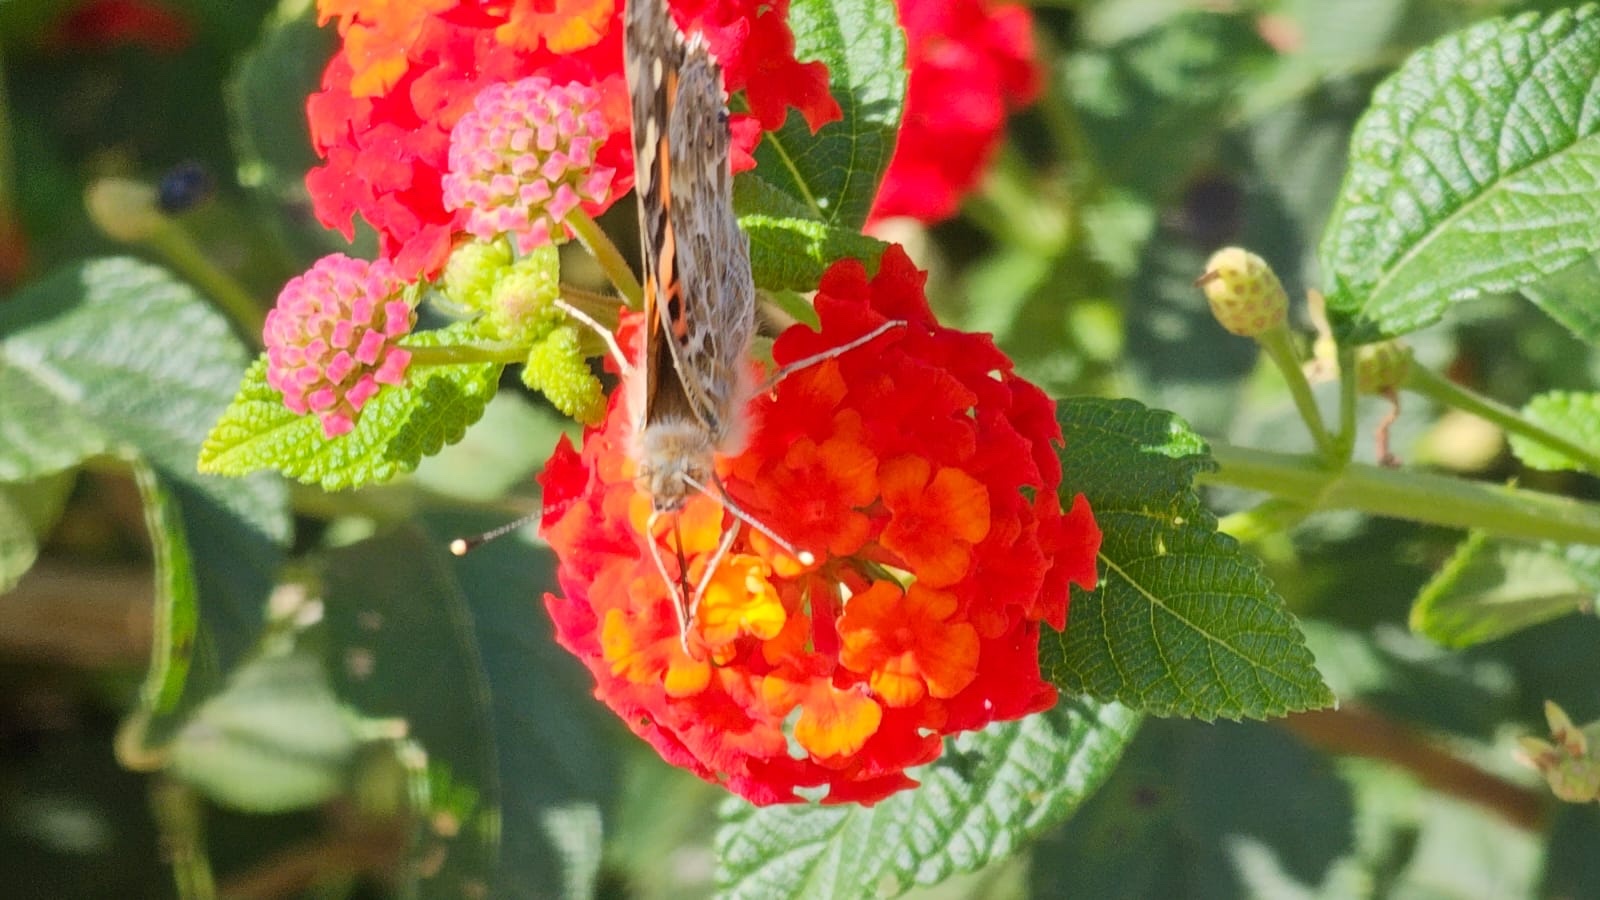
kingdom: Animalia
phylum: Arthropoda
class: Insecta
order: Lepidoptera
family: Nymphalidae
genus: Vanessa
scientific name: Vanessa cardui
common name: Painted lady
